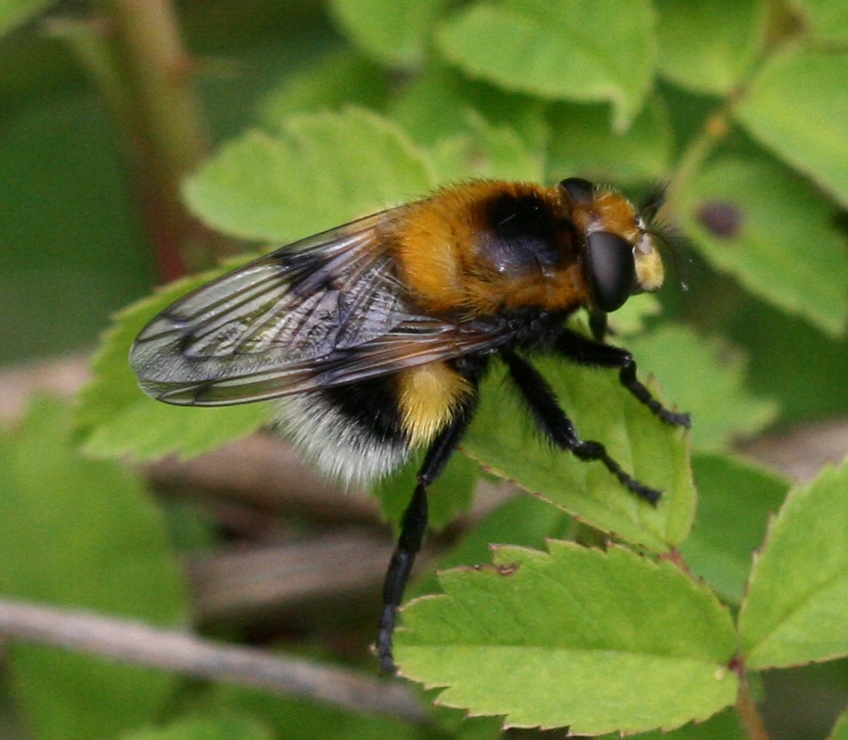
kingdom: Animalia
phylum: Arthropoda
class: Insecta
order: Diptera
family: Syrphidae
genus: Volucella
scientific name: Volucella bombylans
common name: Bumble bee hover fly
